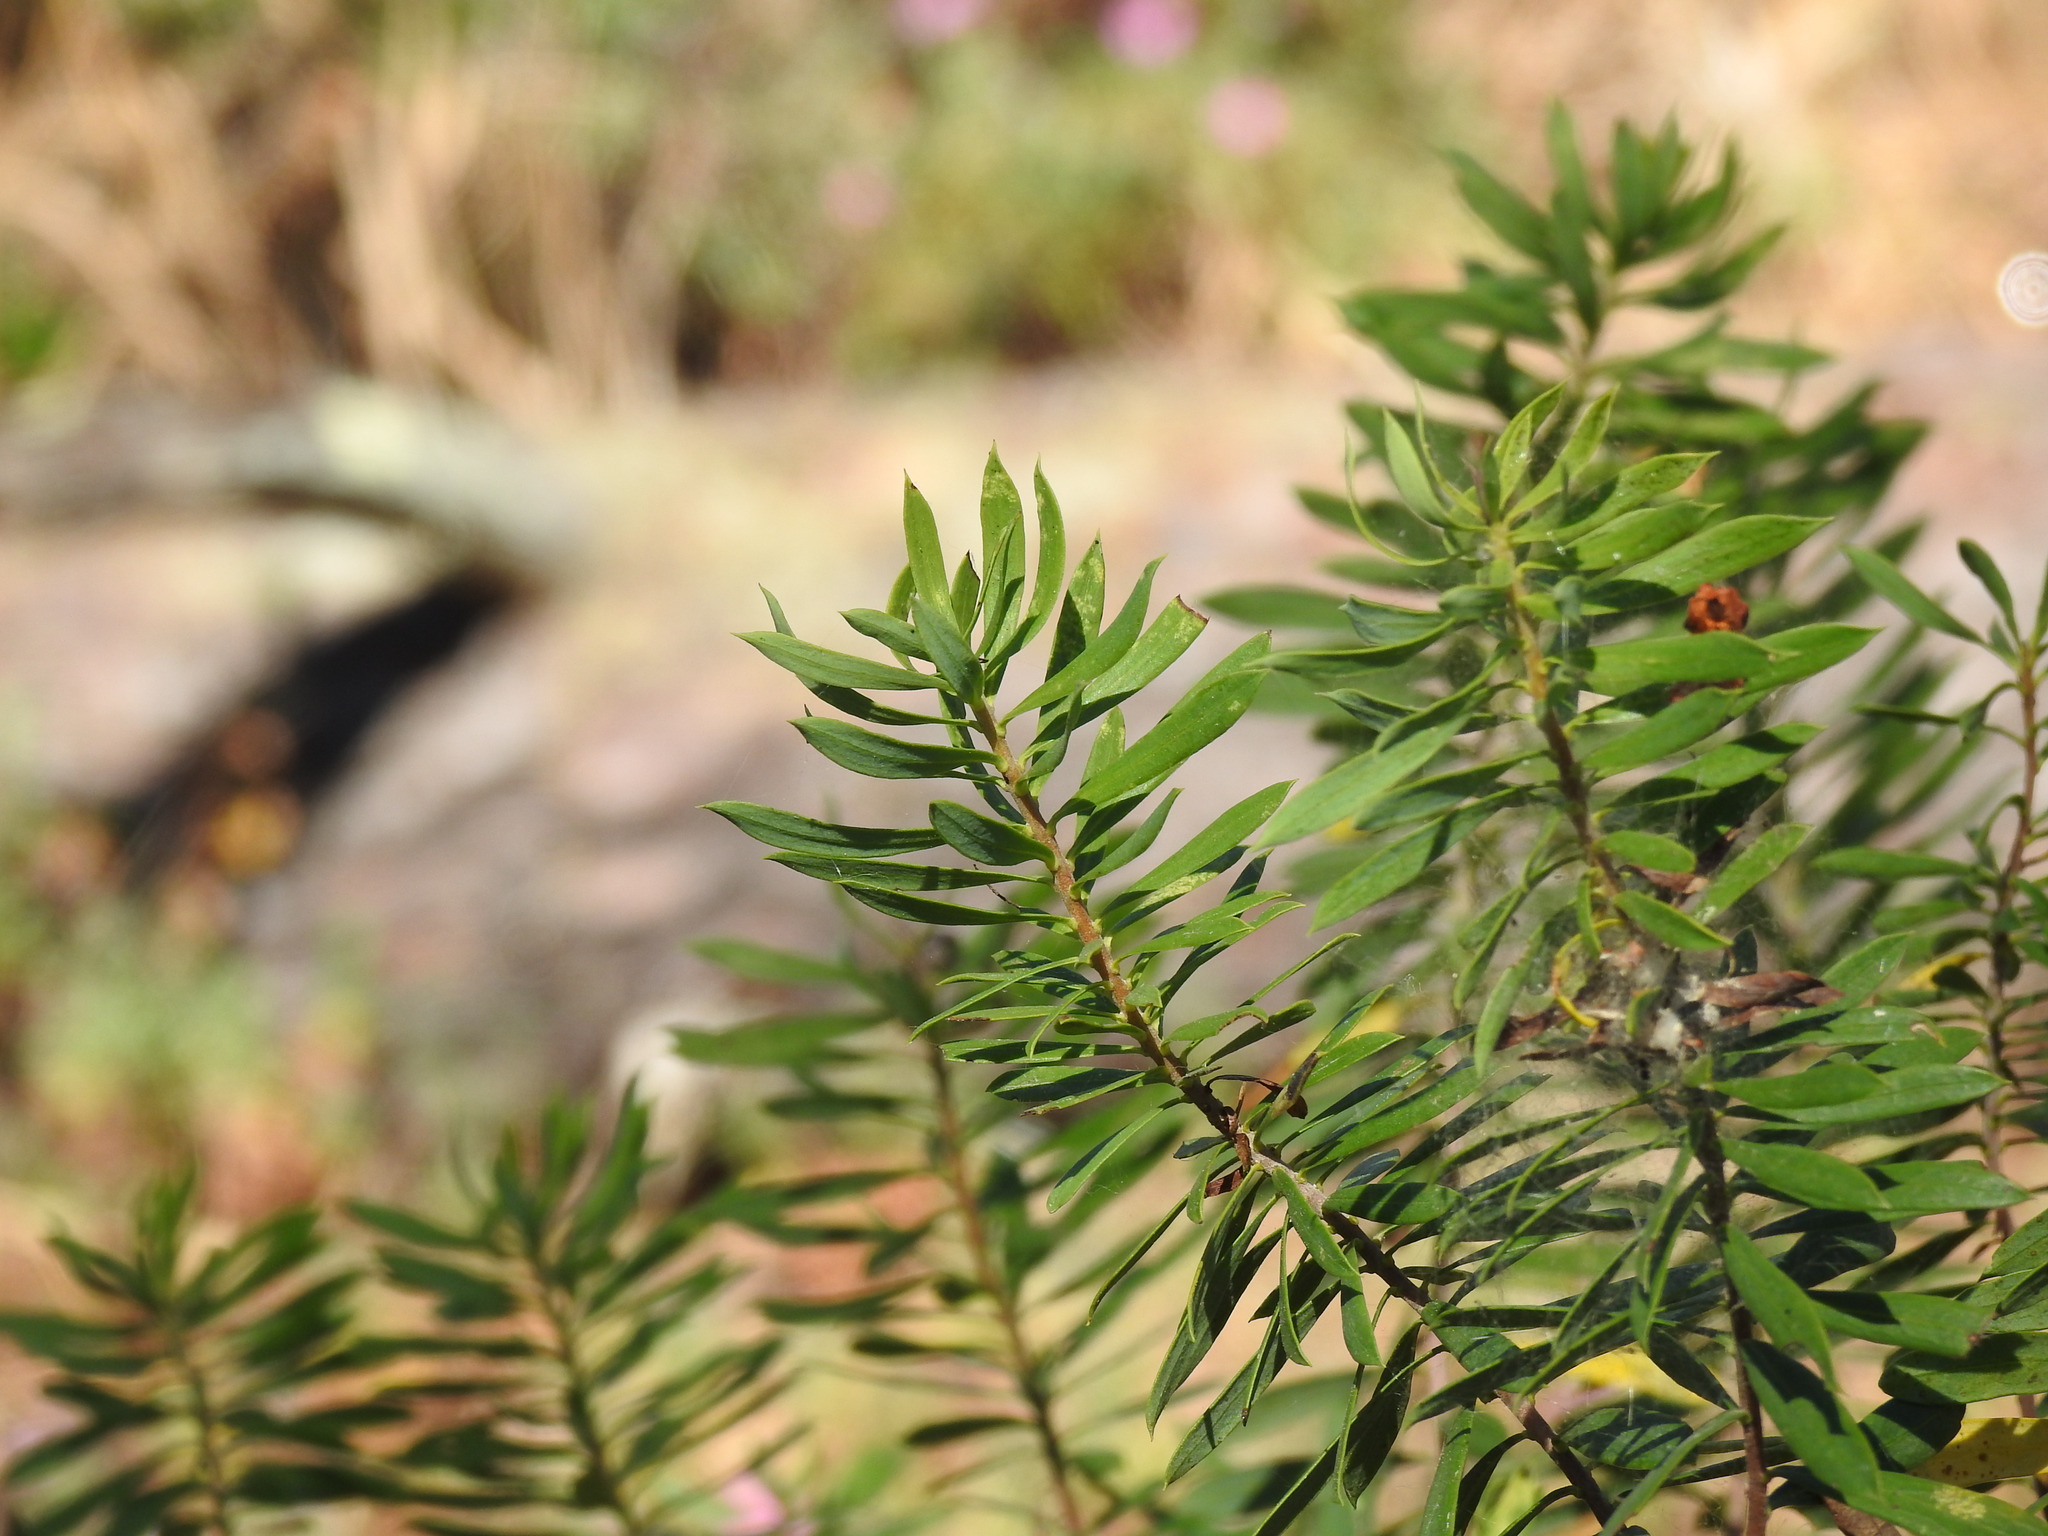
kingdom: Plantae
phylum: Tracheophyta
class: Magnoliopsida
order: Malvales
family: Thymelaeaceae
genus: Daphne
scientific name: Daphne gnidium
